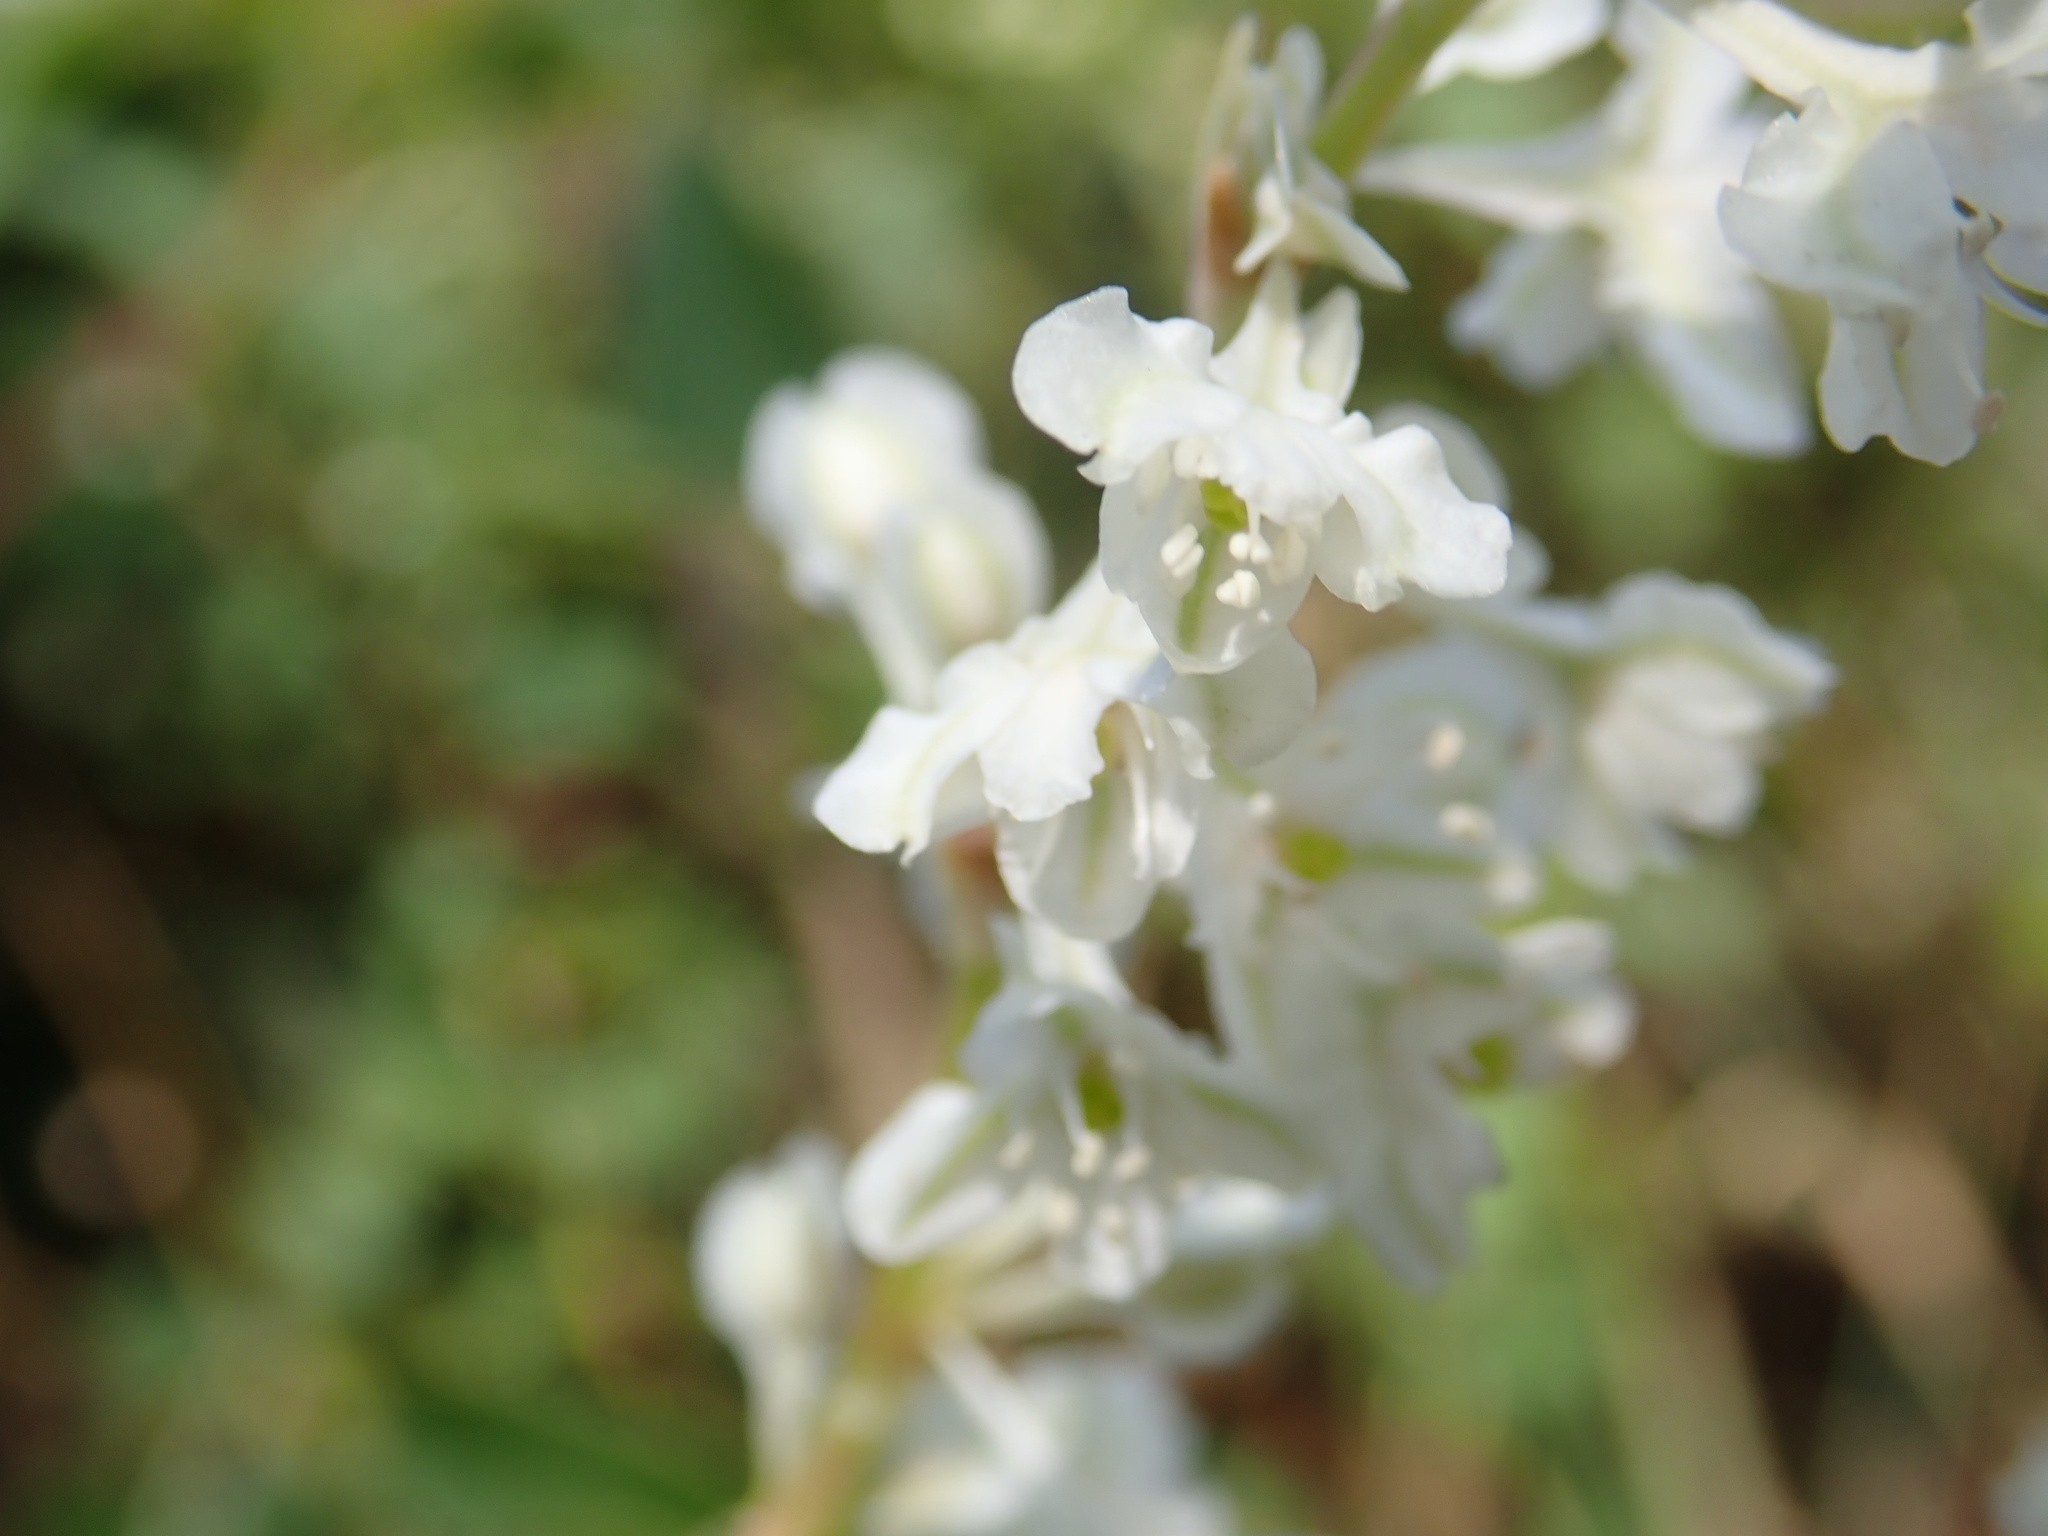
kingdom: Plantae
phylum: Tracheophyta
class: Magnoliopsida
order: Caryophyllales
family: Polygonaceae
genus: Fallopia
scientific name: Fallopia baldschuanica
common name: Russian-vine
